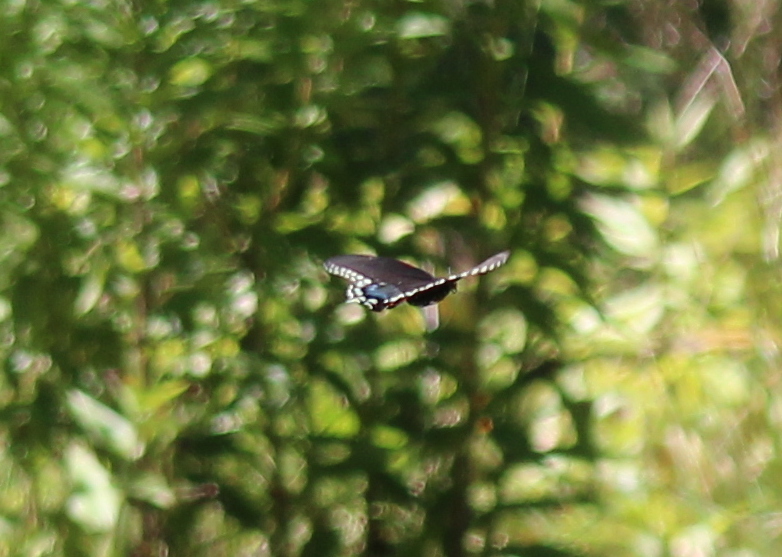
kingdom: Animalia
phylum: Arthropoda
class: Insecta
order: Lepidoptera
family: Papilionidae
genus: Papilio
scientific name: Papilio troilus
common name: Spicebush swallowtail
